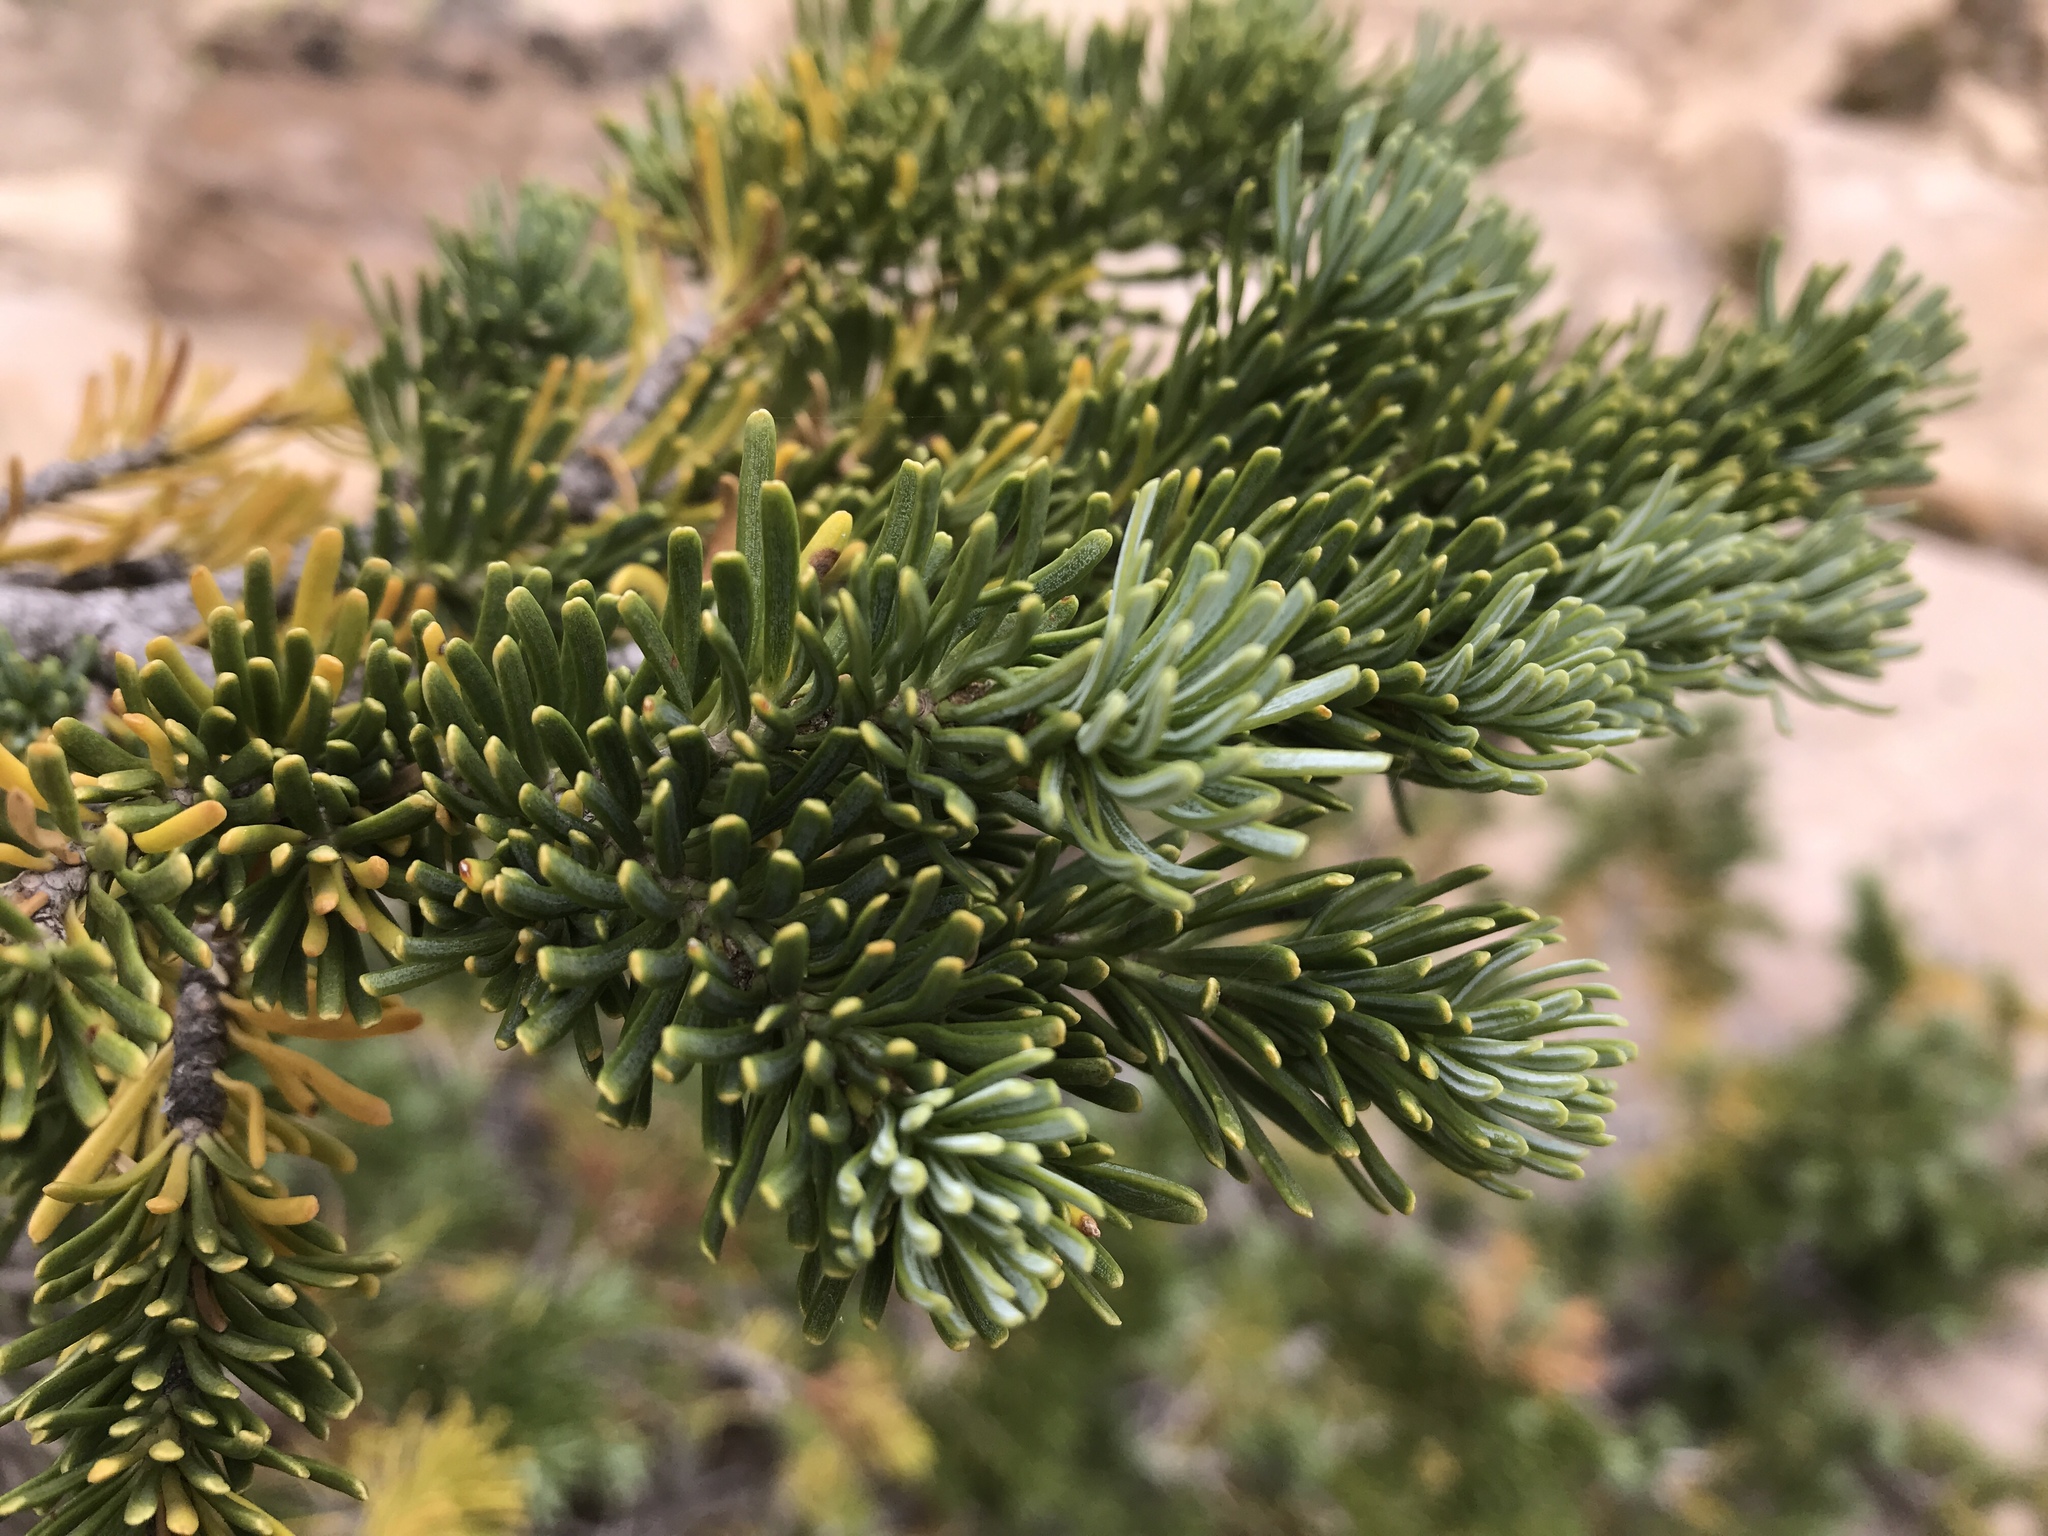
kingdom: Plantae
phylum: Tracheophyta
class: Pinopsida
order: Pinales
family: Pinaceae
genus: Abies
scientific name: Abies lasiocarpa
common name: Subalpine fir
